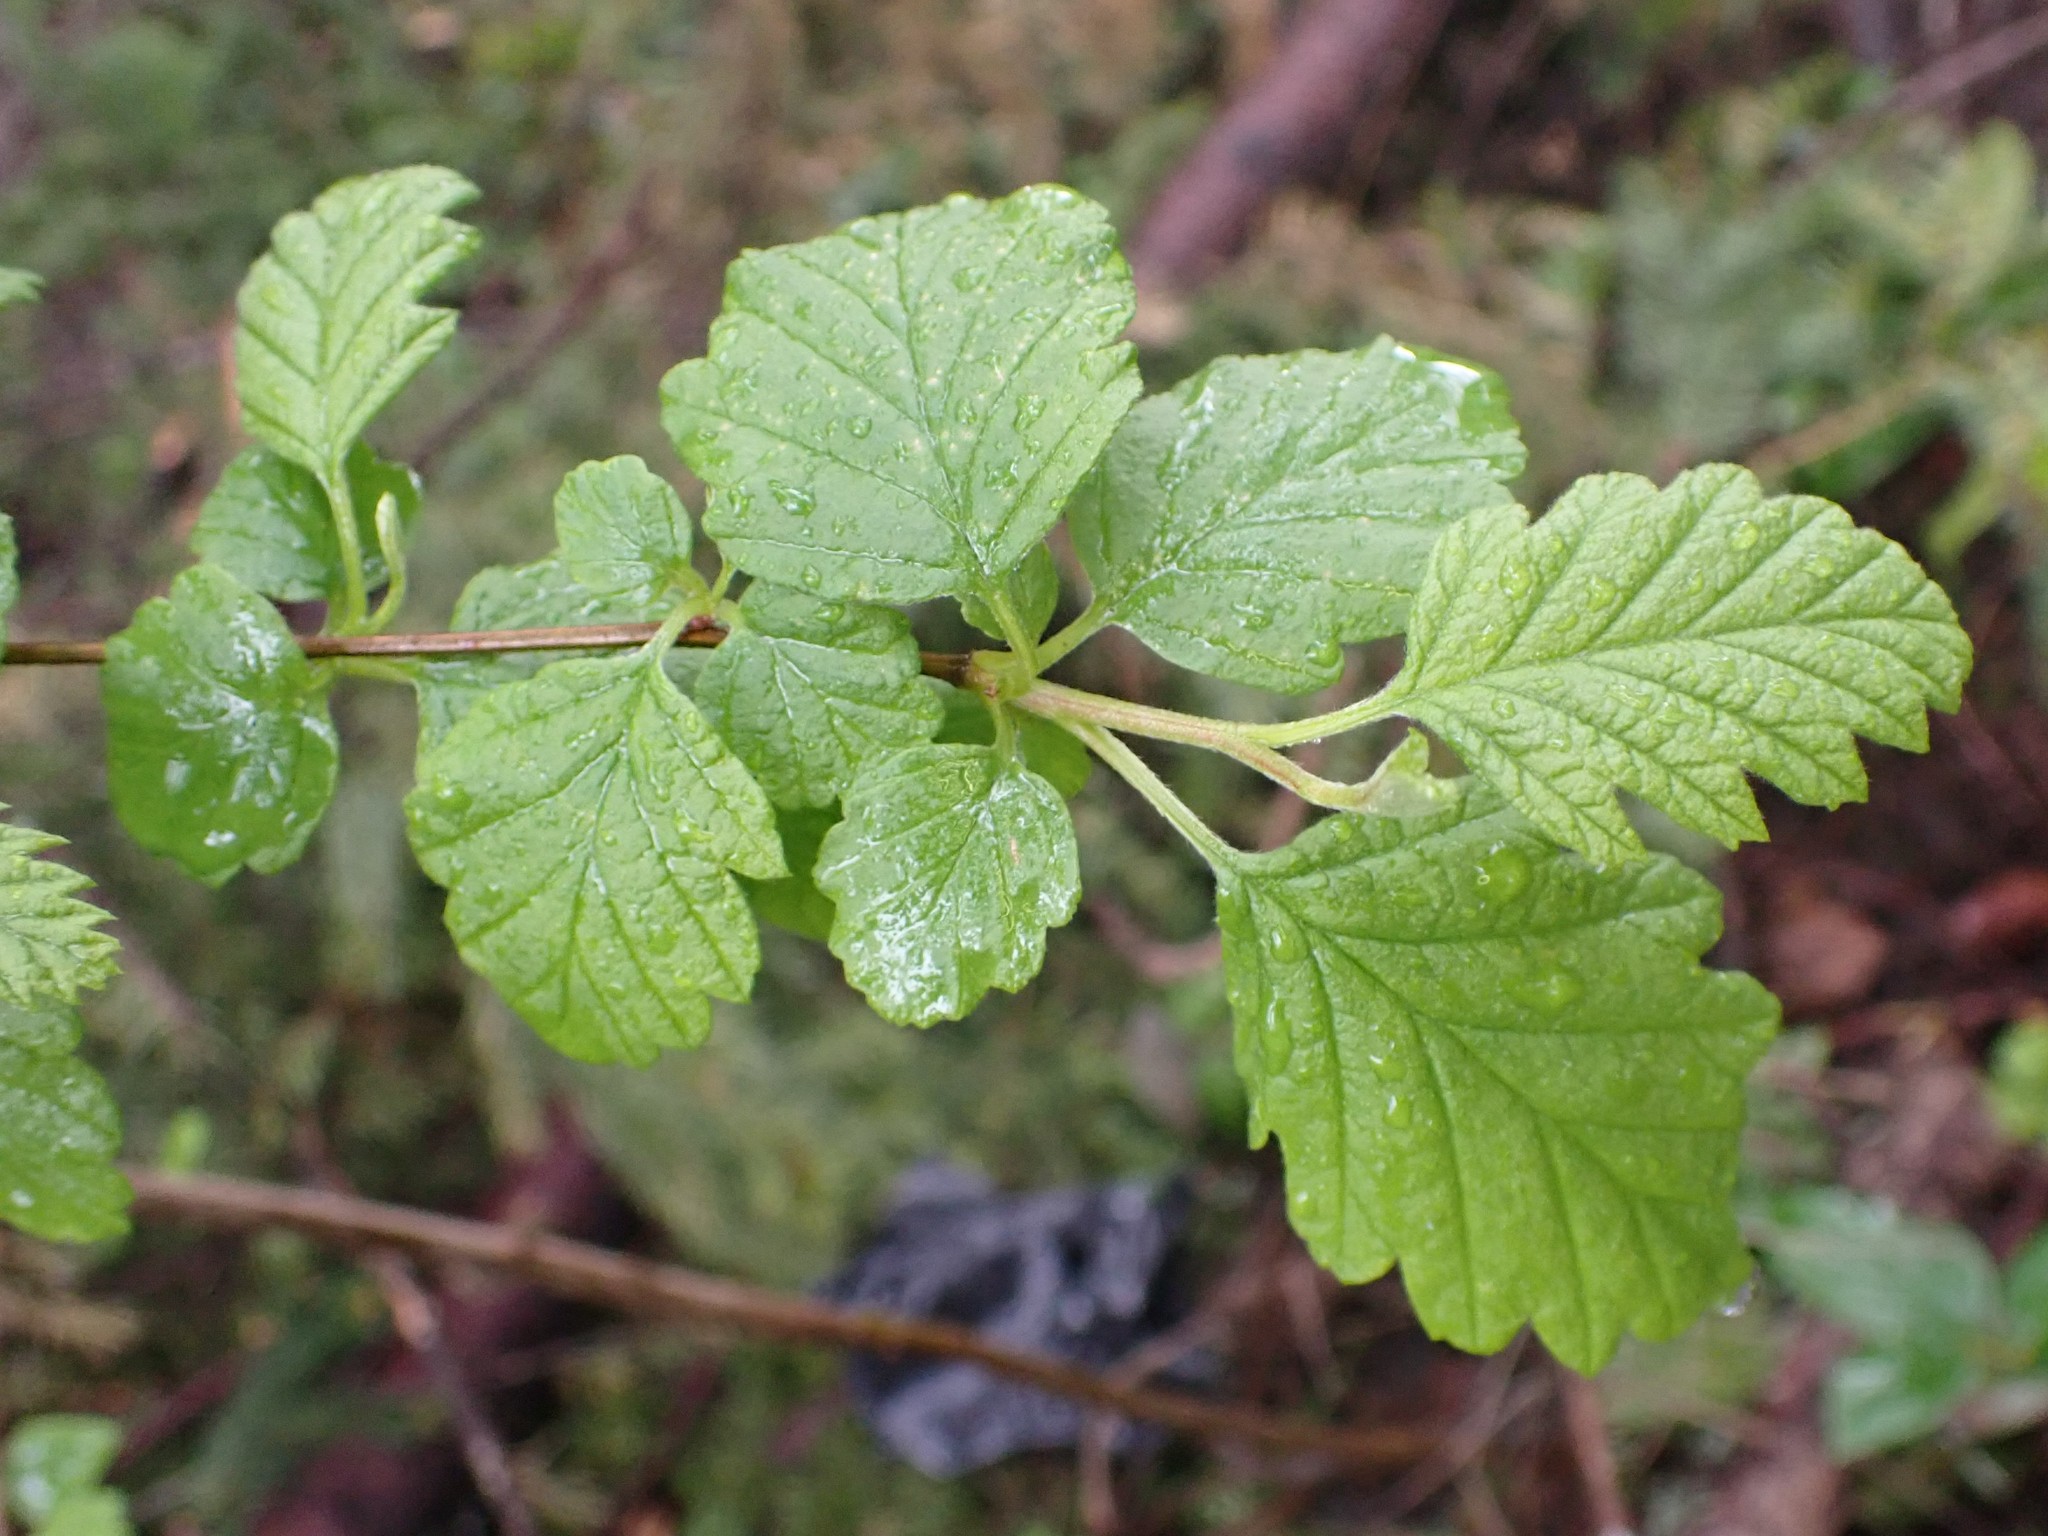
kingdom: Plantae
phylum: Tracheophyta
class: Magnoliopsida
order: Rosales
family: Rosaceae
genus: Holodiscus
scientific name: Holodiscus discolor
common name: Oceanspray
